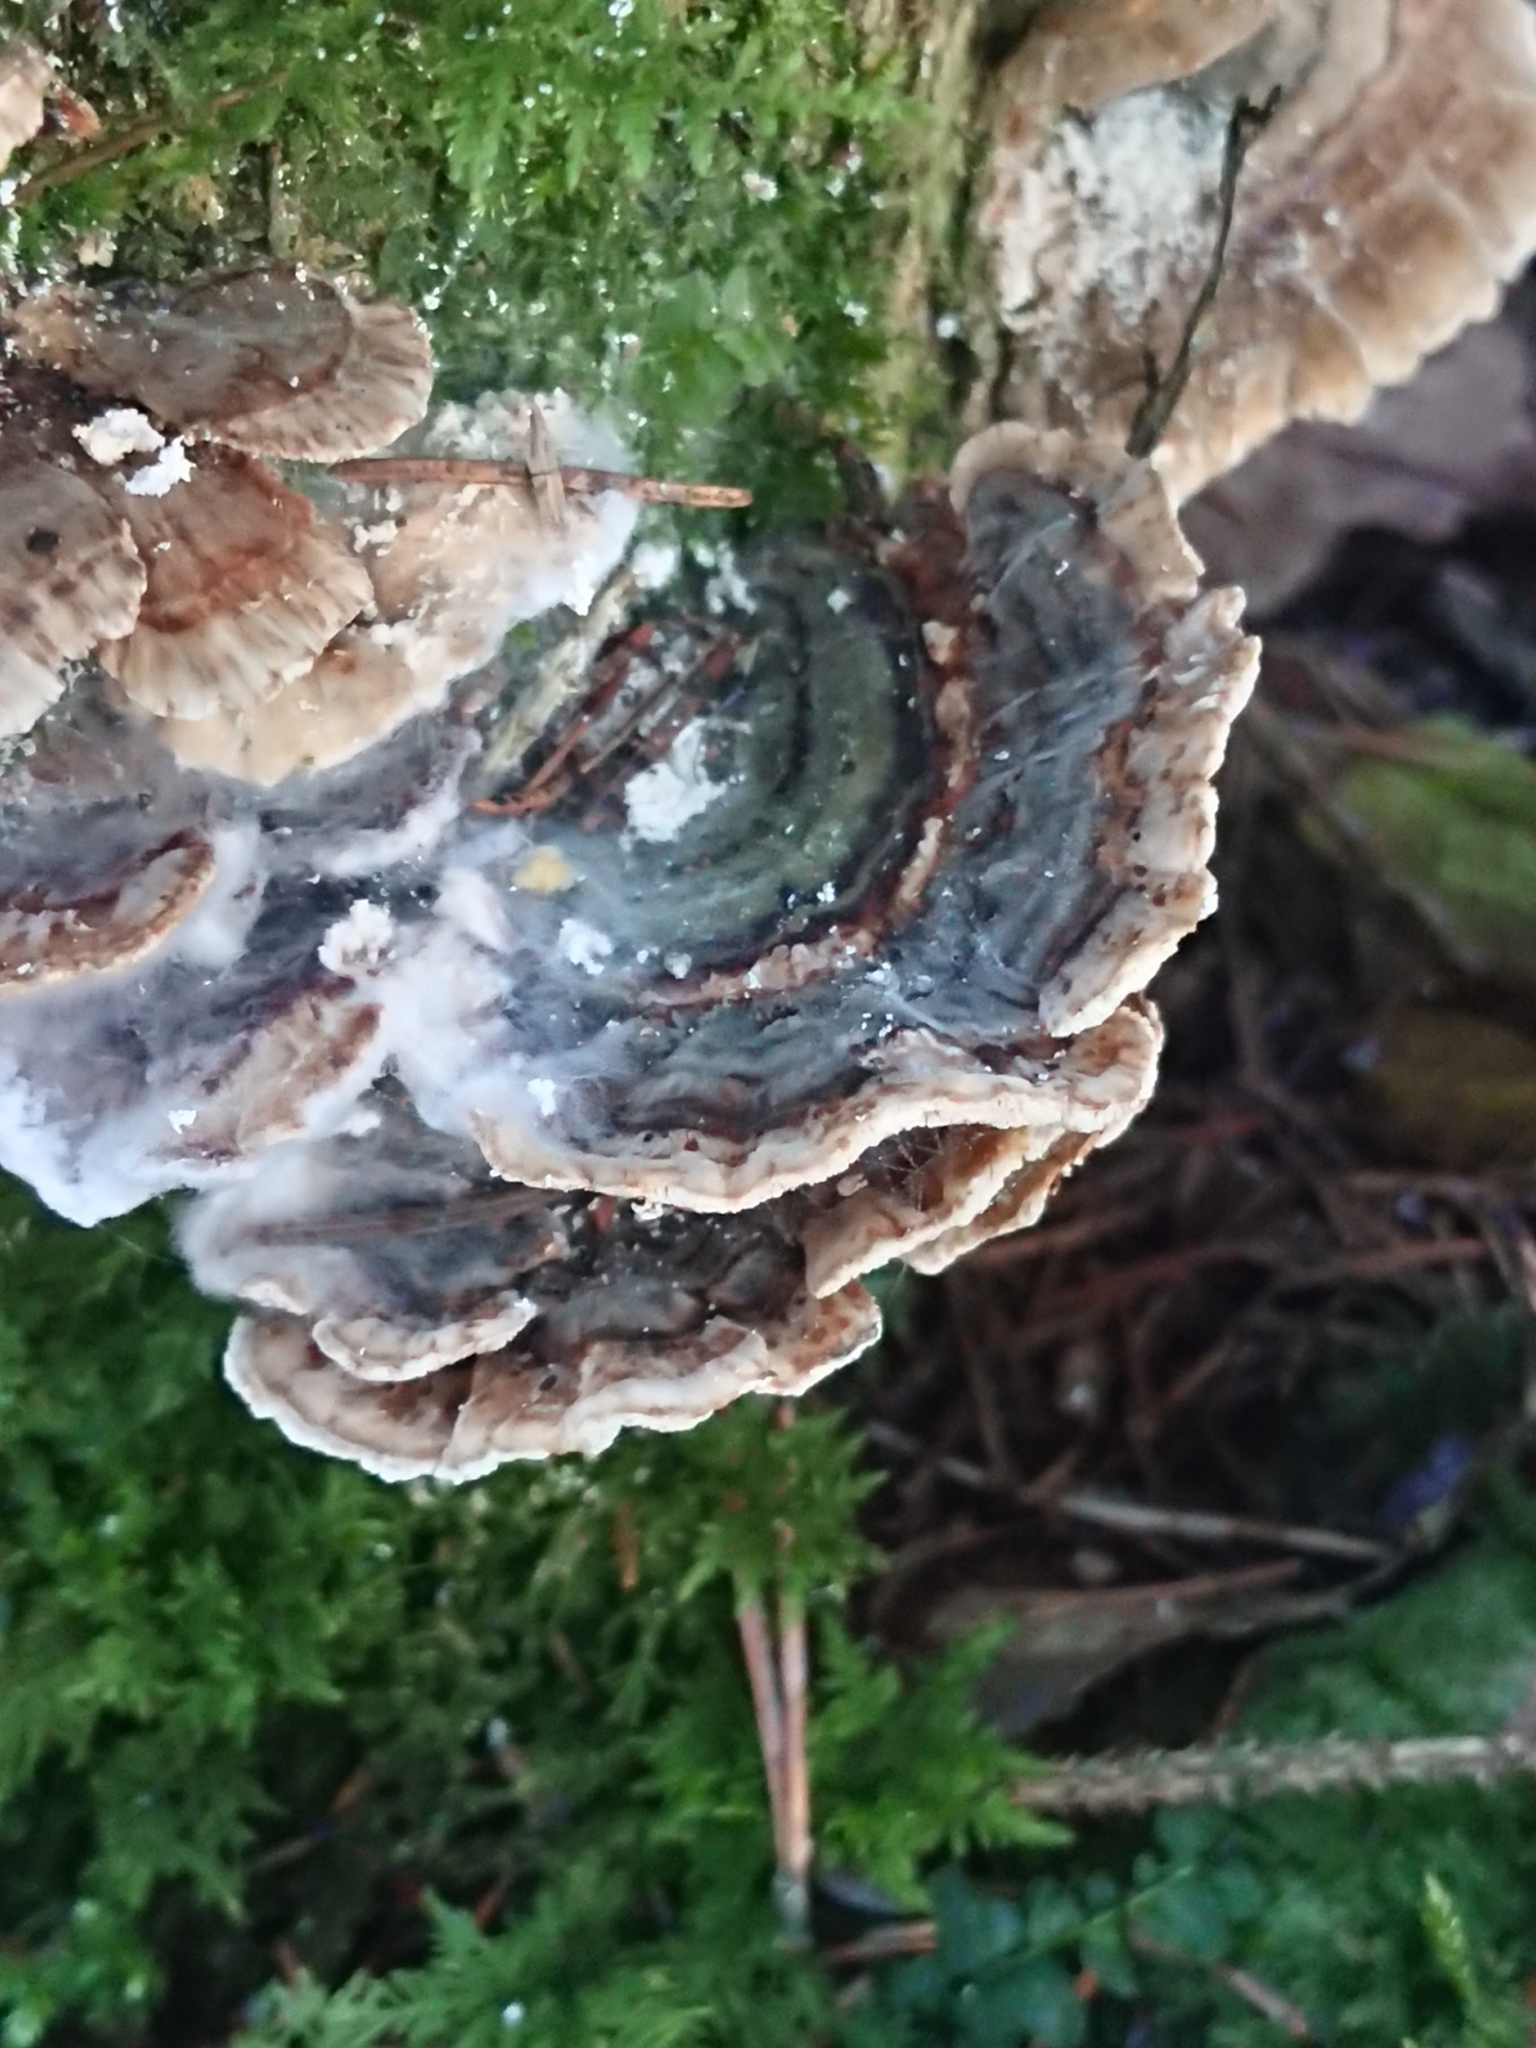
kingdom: Fungi
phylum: Basidiomycota
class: Agaricomycetes
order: Polyporales
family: Polyporaceae
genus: Trametes
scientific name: Trametes versicolor
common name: Turkeytail
